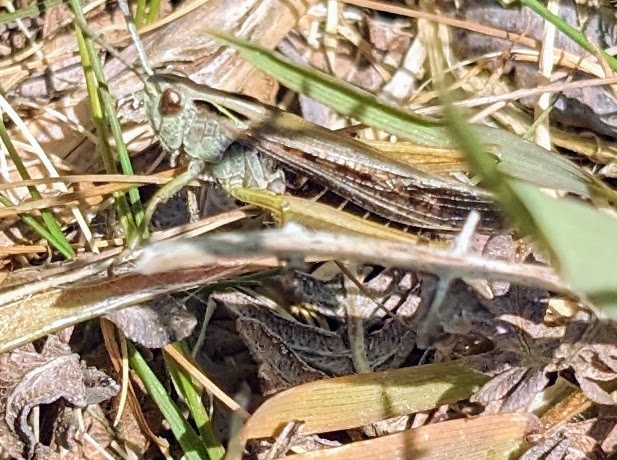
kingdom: Animalia
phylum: Arthropoda
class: Insecta
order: Orthoptera
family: Acrididae
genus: Omocestus
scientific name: Omocestus viridulus
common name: Common green grasshopper
